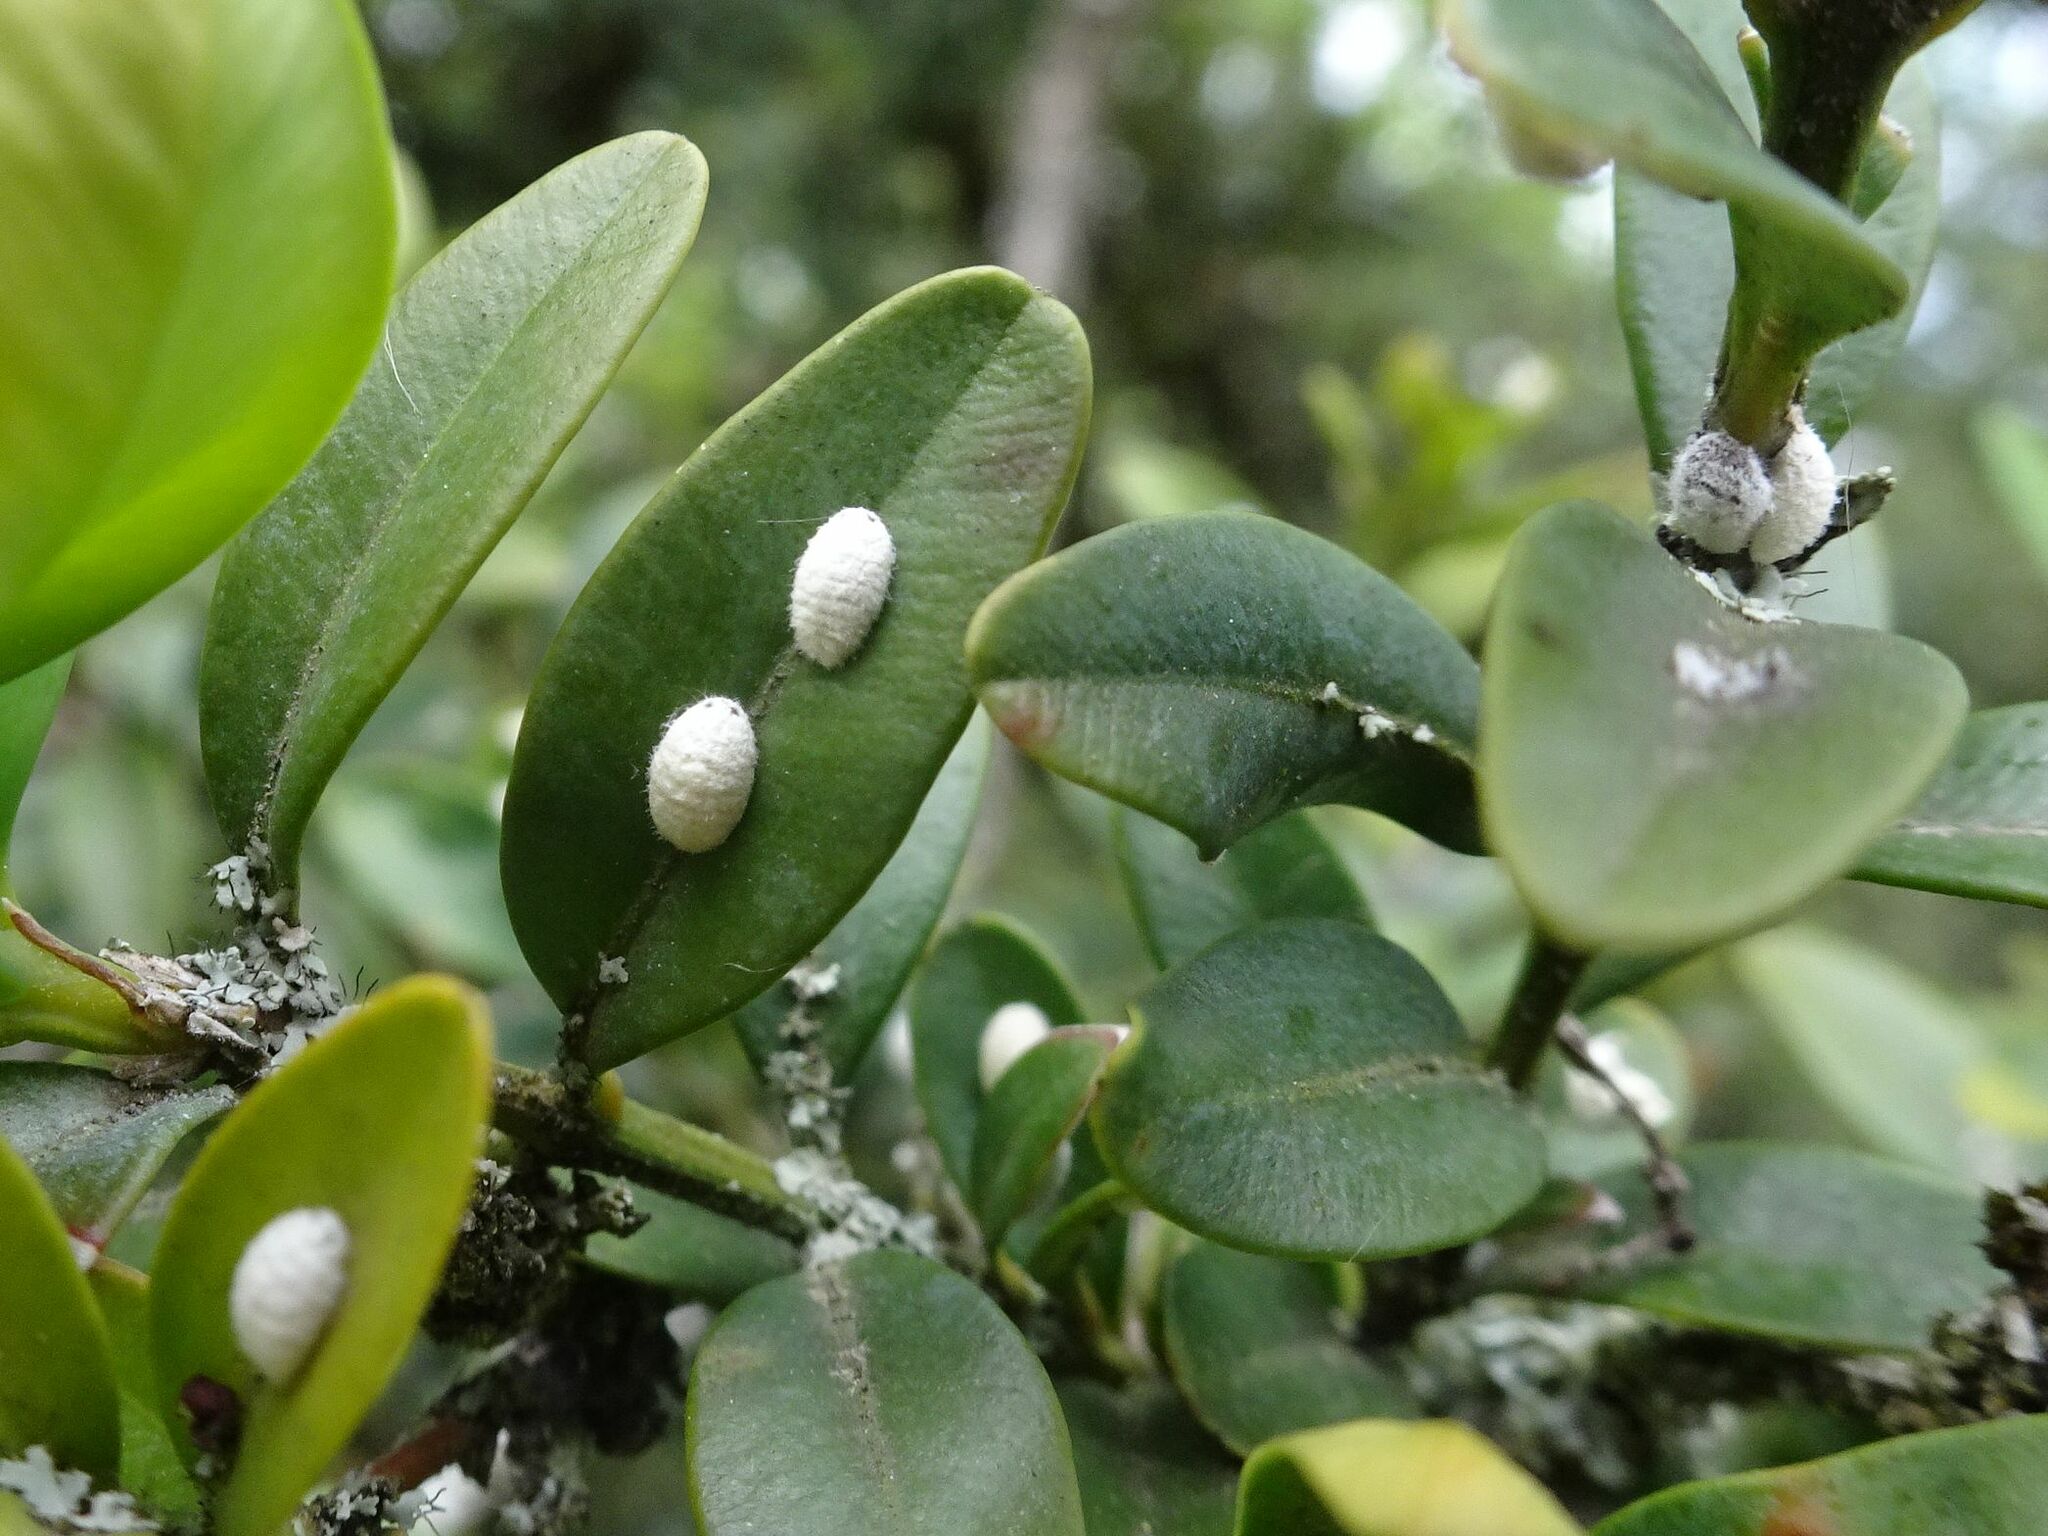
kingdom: Animalia
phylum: Arthropoda
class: Insecta
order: Hemiptera
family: Coccidae
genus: Lichtensia
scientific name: Lichtensia viburni
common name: Viburnum cushion scale
